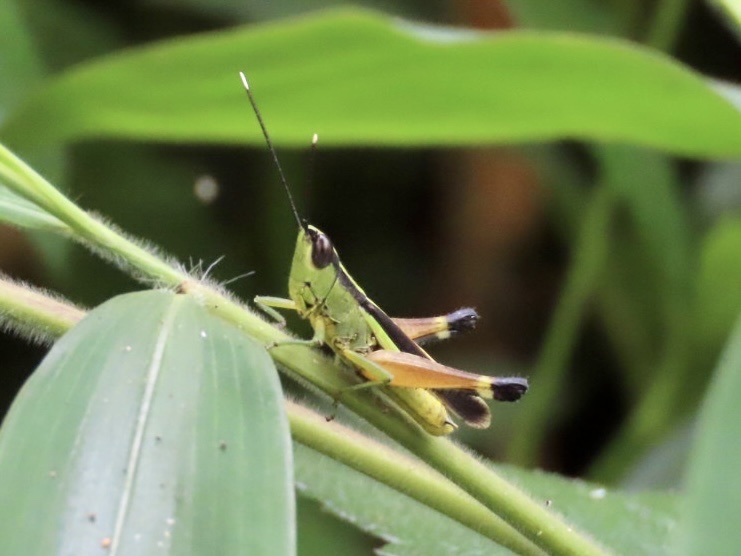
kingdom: Animalia
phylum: Arthropoda
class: Insecta
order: Orthoptera
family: Acrididae
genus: Ceracris
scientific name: Ceracris fasciata
